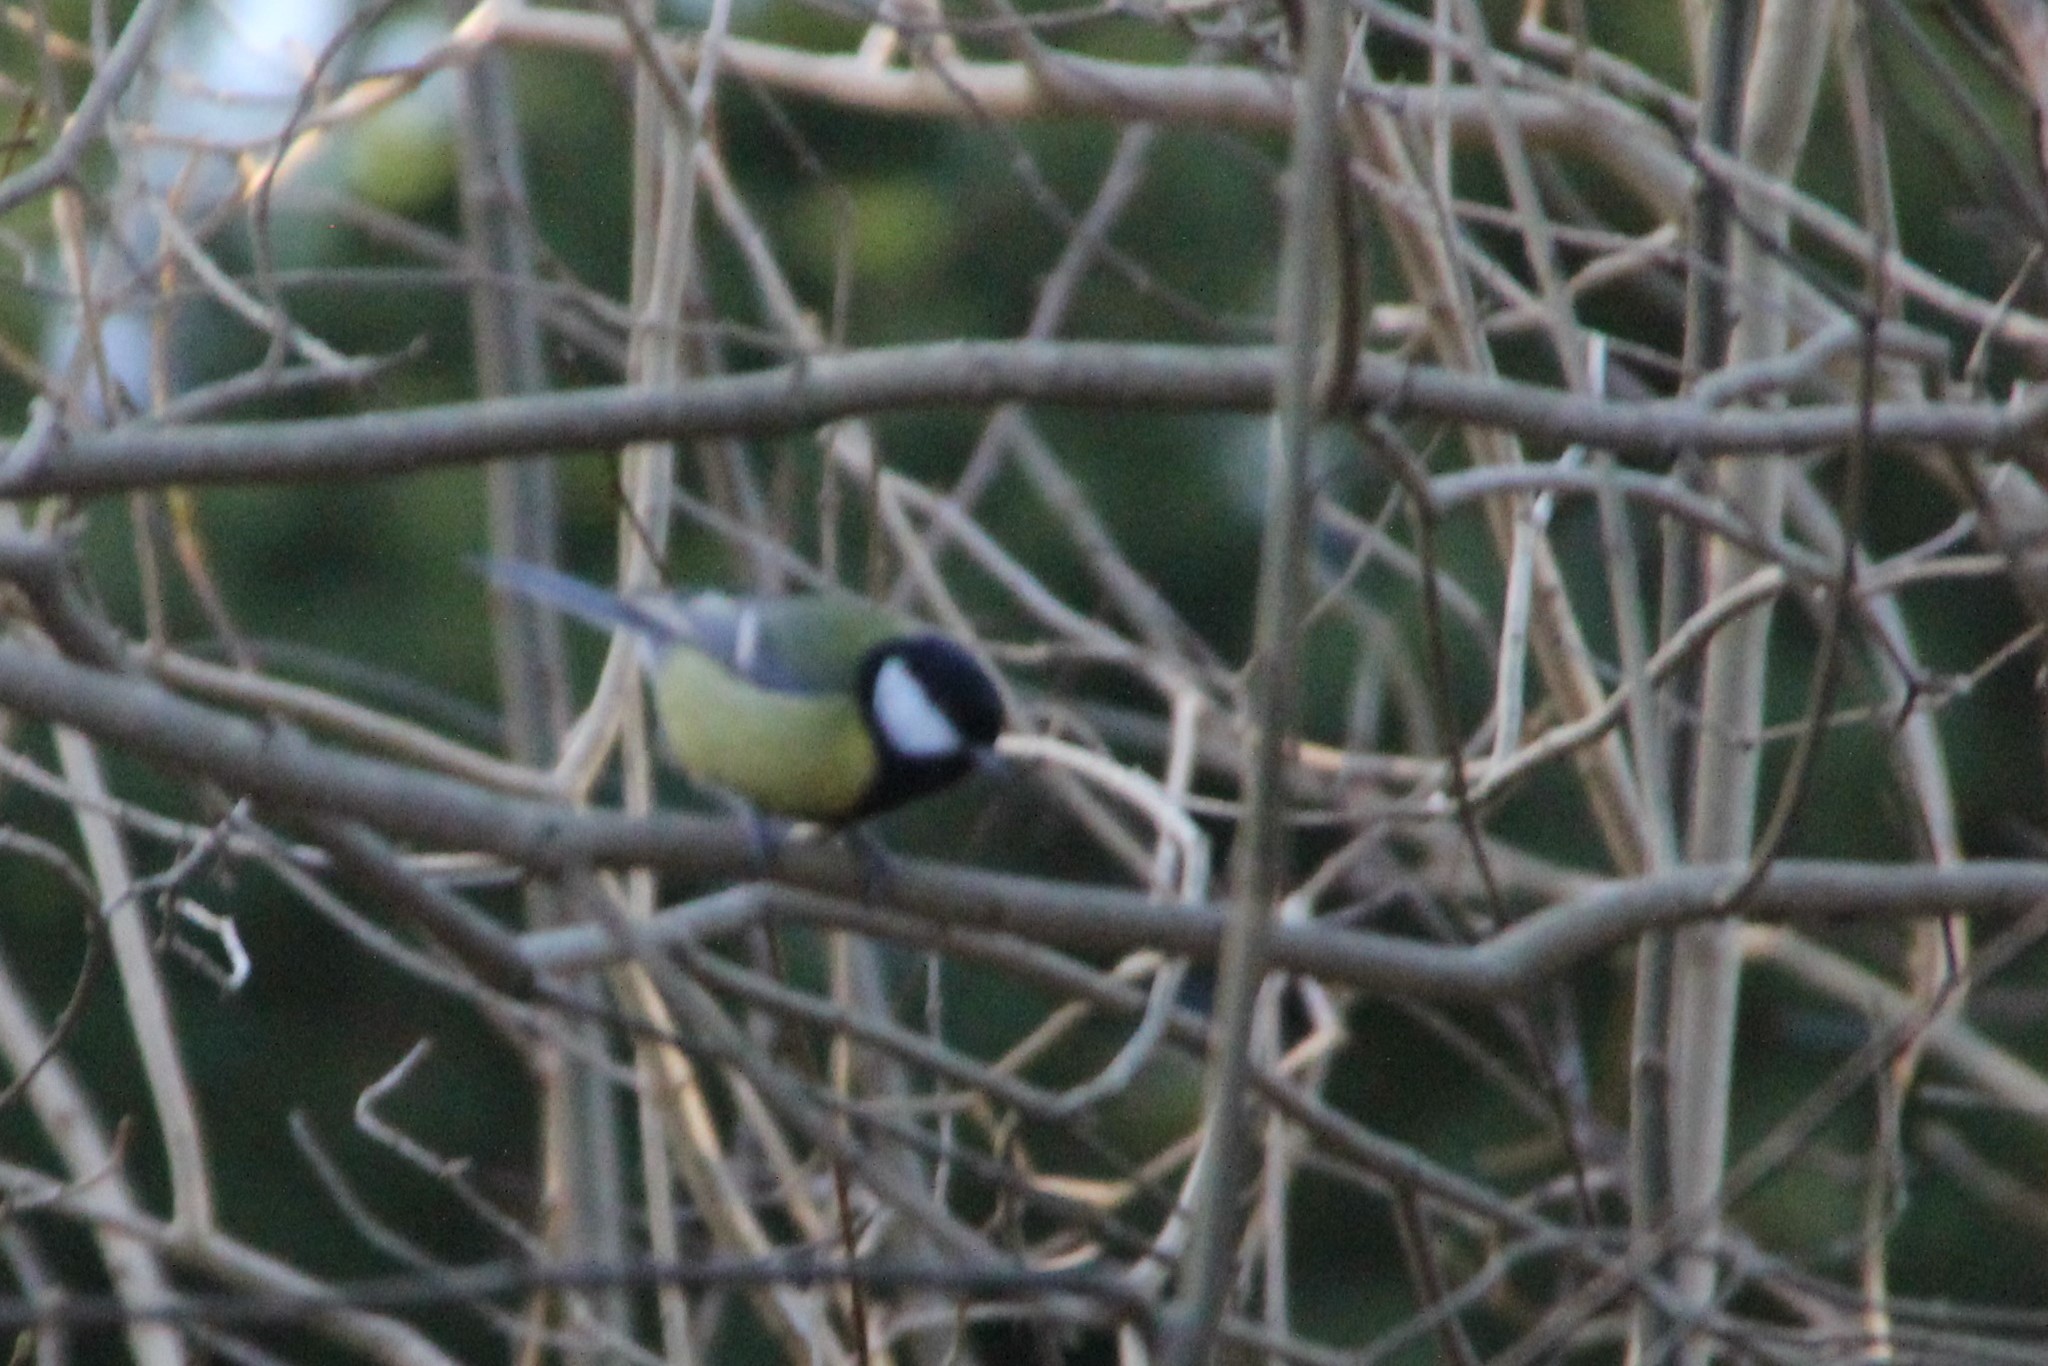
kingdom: Animalia
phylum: Chordata
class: Aves
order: Passeriformes
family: Paridae
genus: Parus
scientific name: Parus major
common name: Great tit
